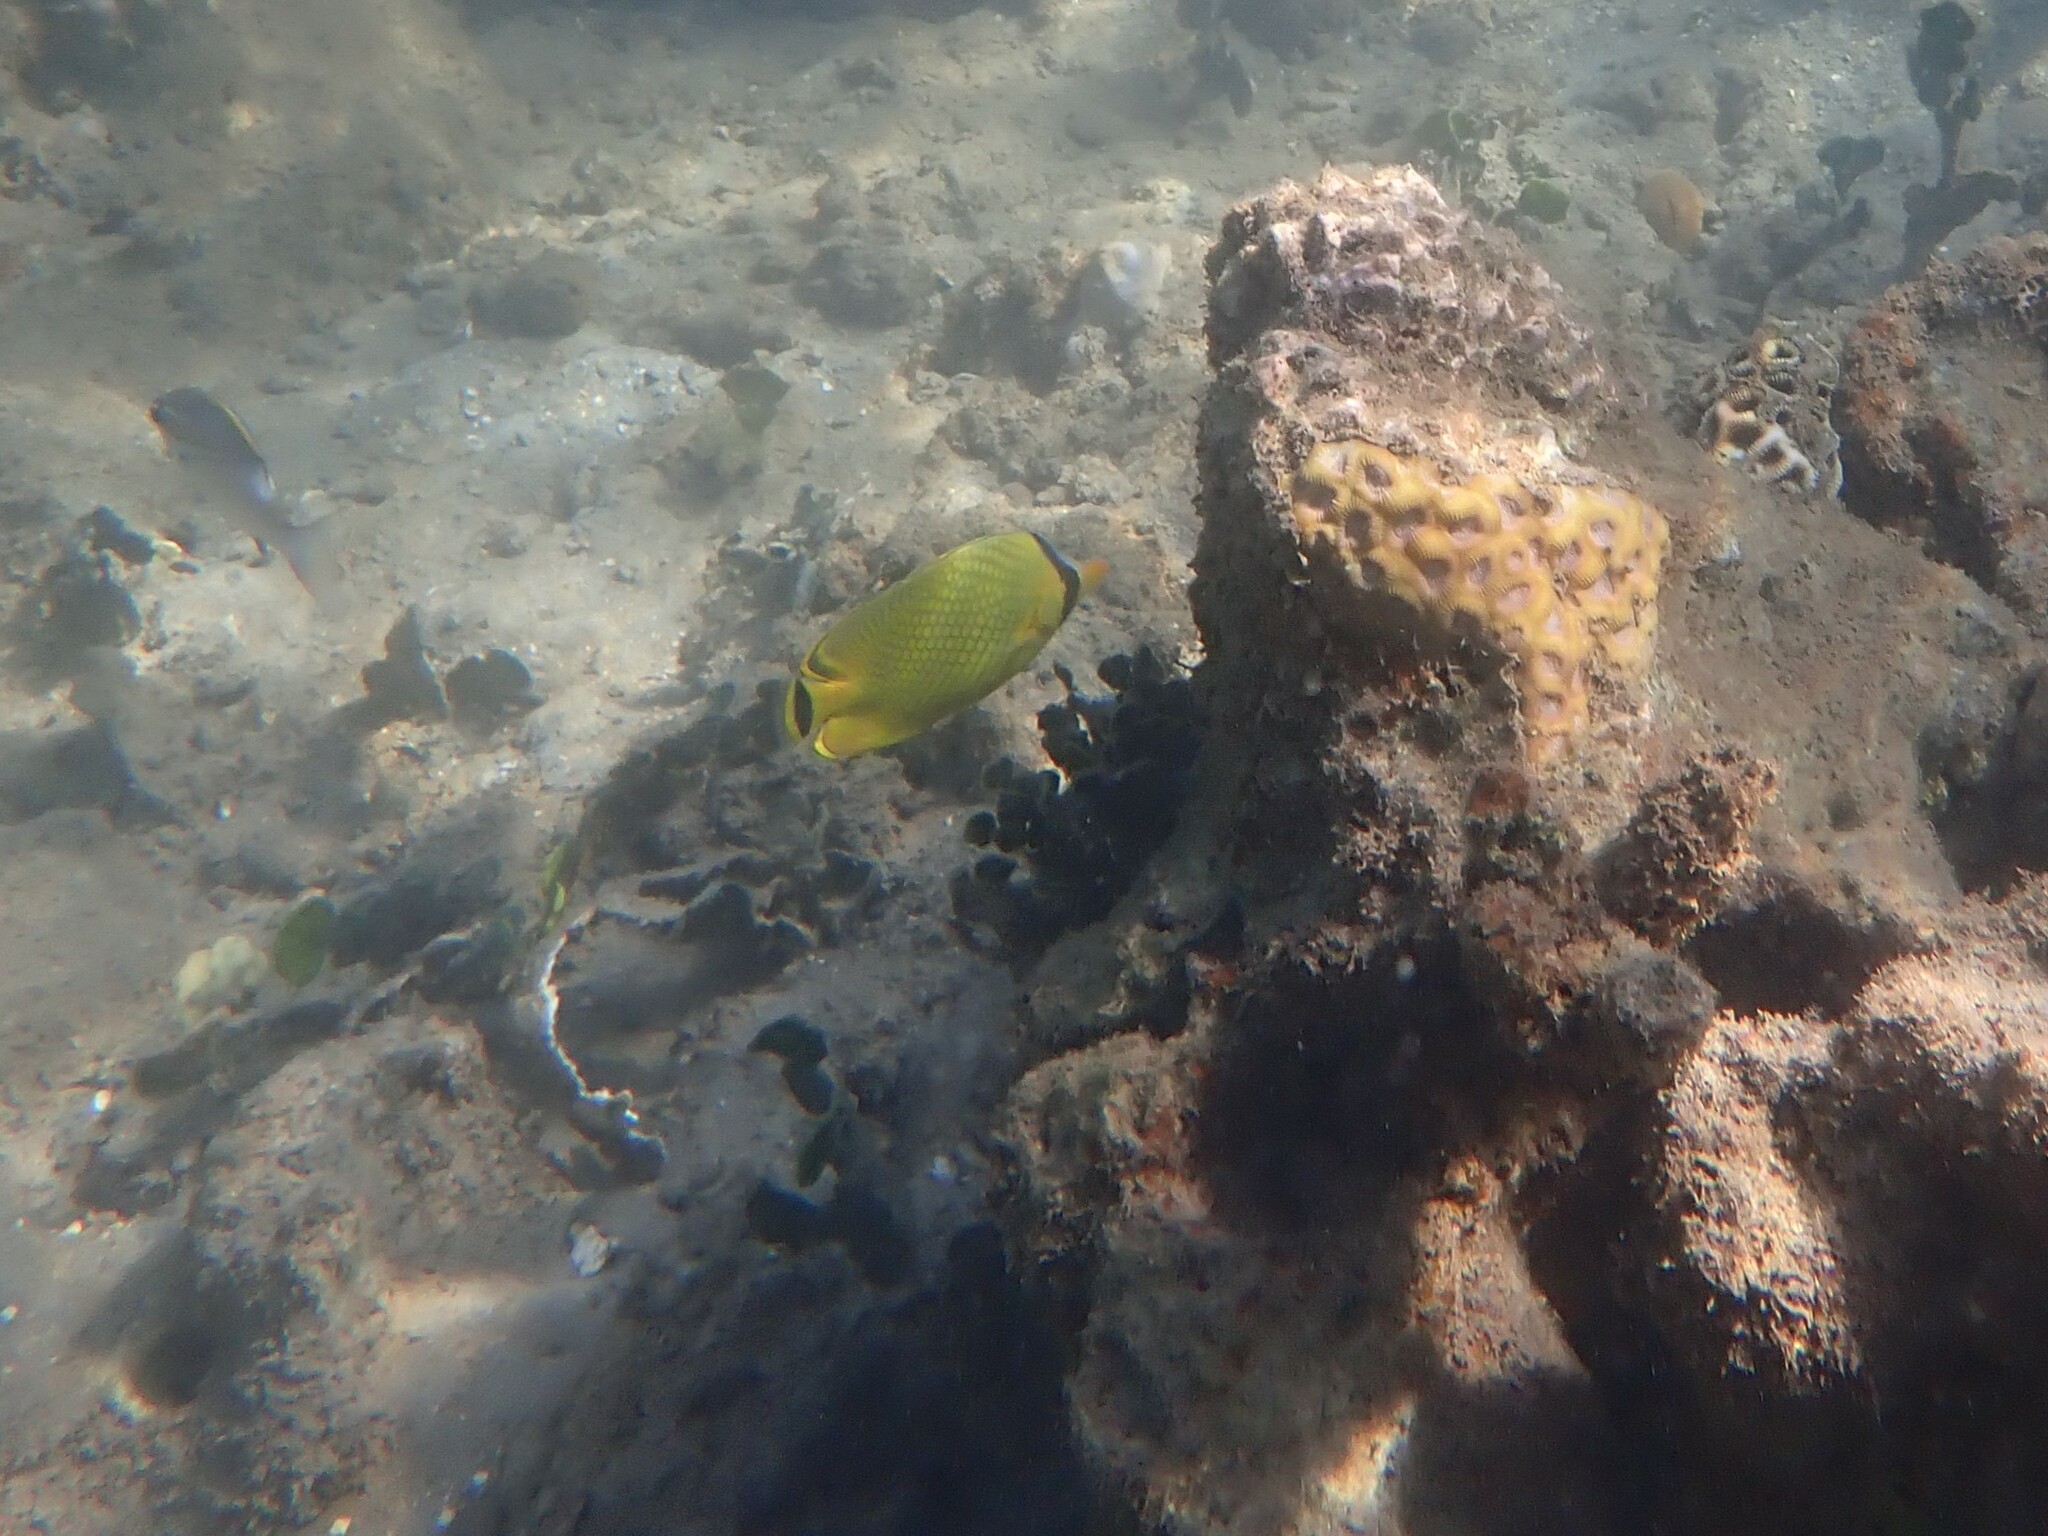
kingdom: Animalia
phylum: Chordata
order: Perciformes
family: Chaetodontidae
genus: Chaetodon
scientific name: Chaetodon rafflesii
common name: Latticed butterflyfish
